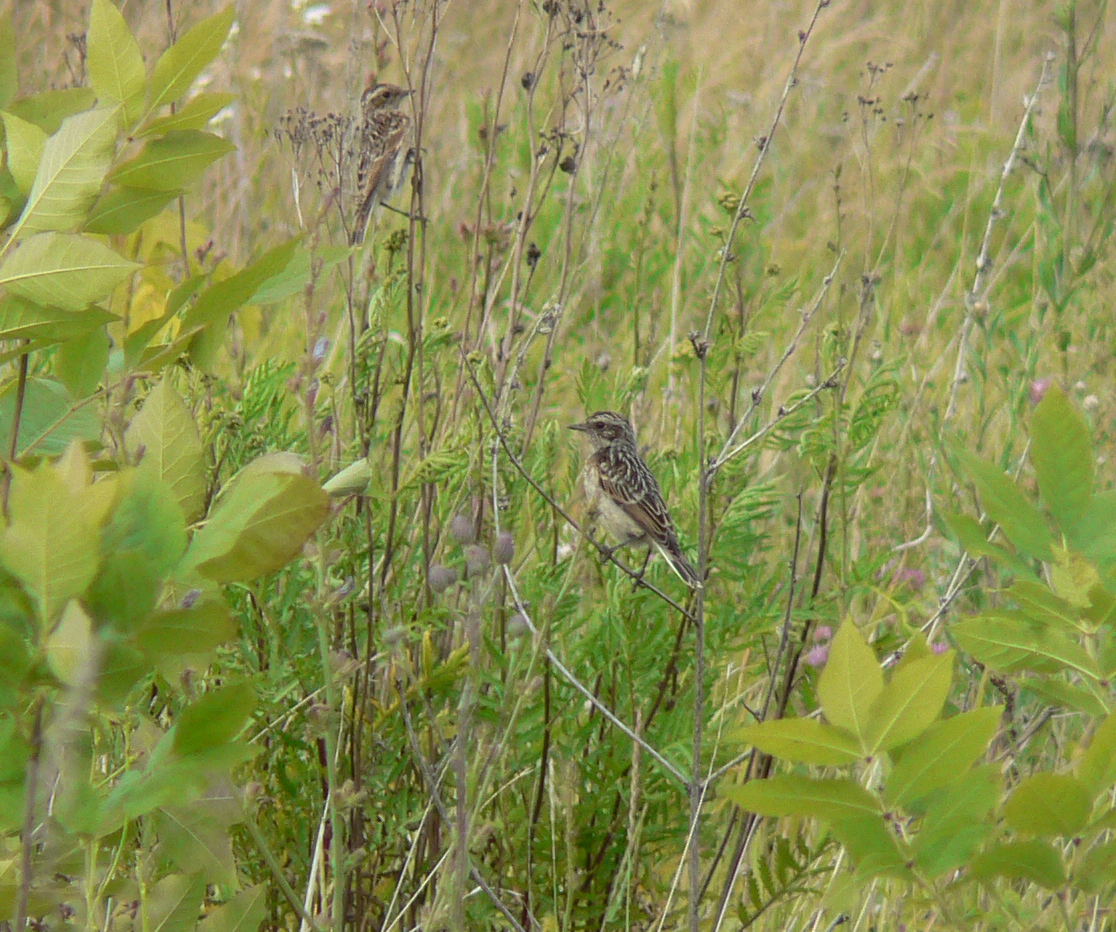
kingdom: Animalia
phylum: Chordata
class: Aves
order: Passeriformes
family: Muscicapidae
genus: Saxicola
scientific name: Saxicola rubetra
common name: Whinchat
